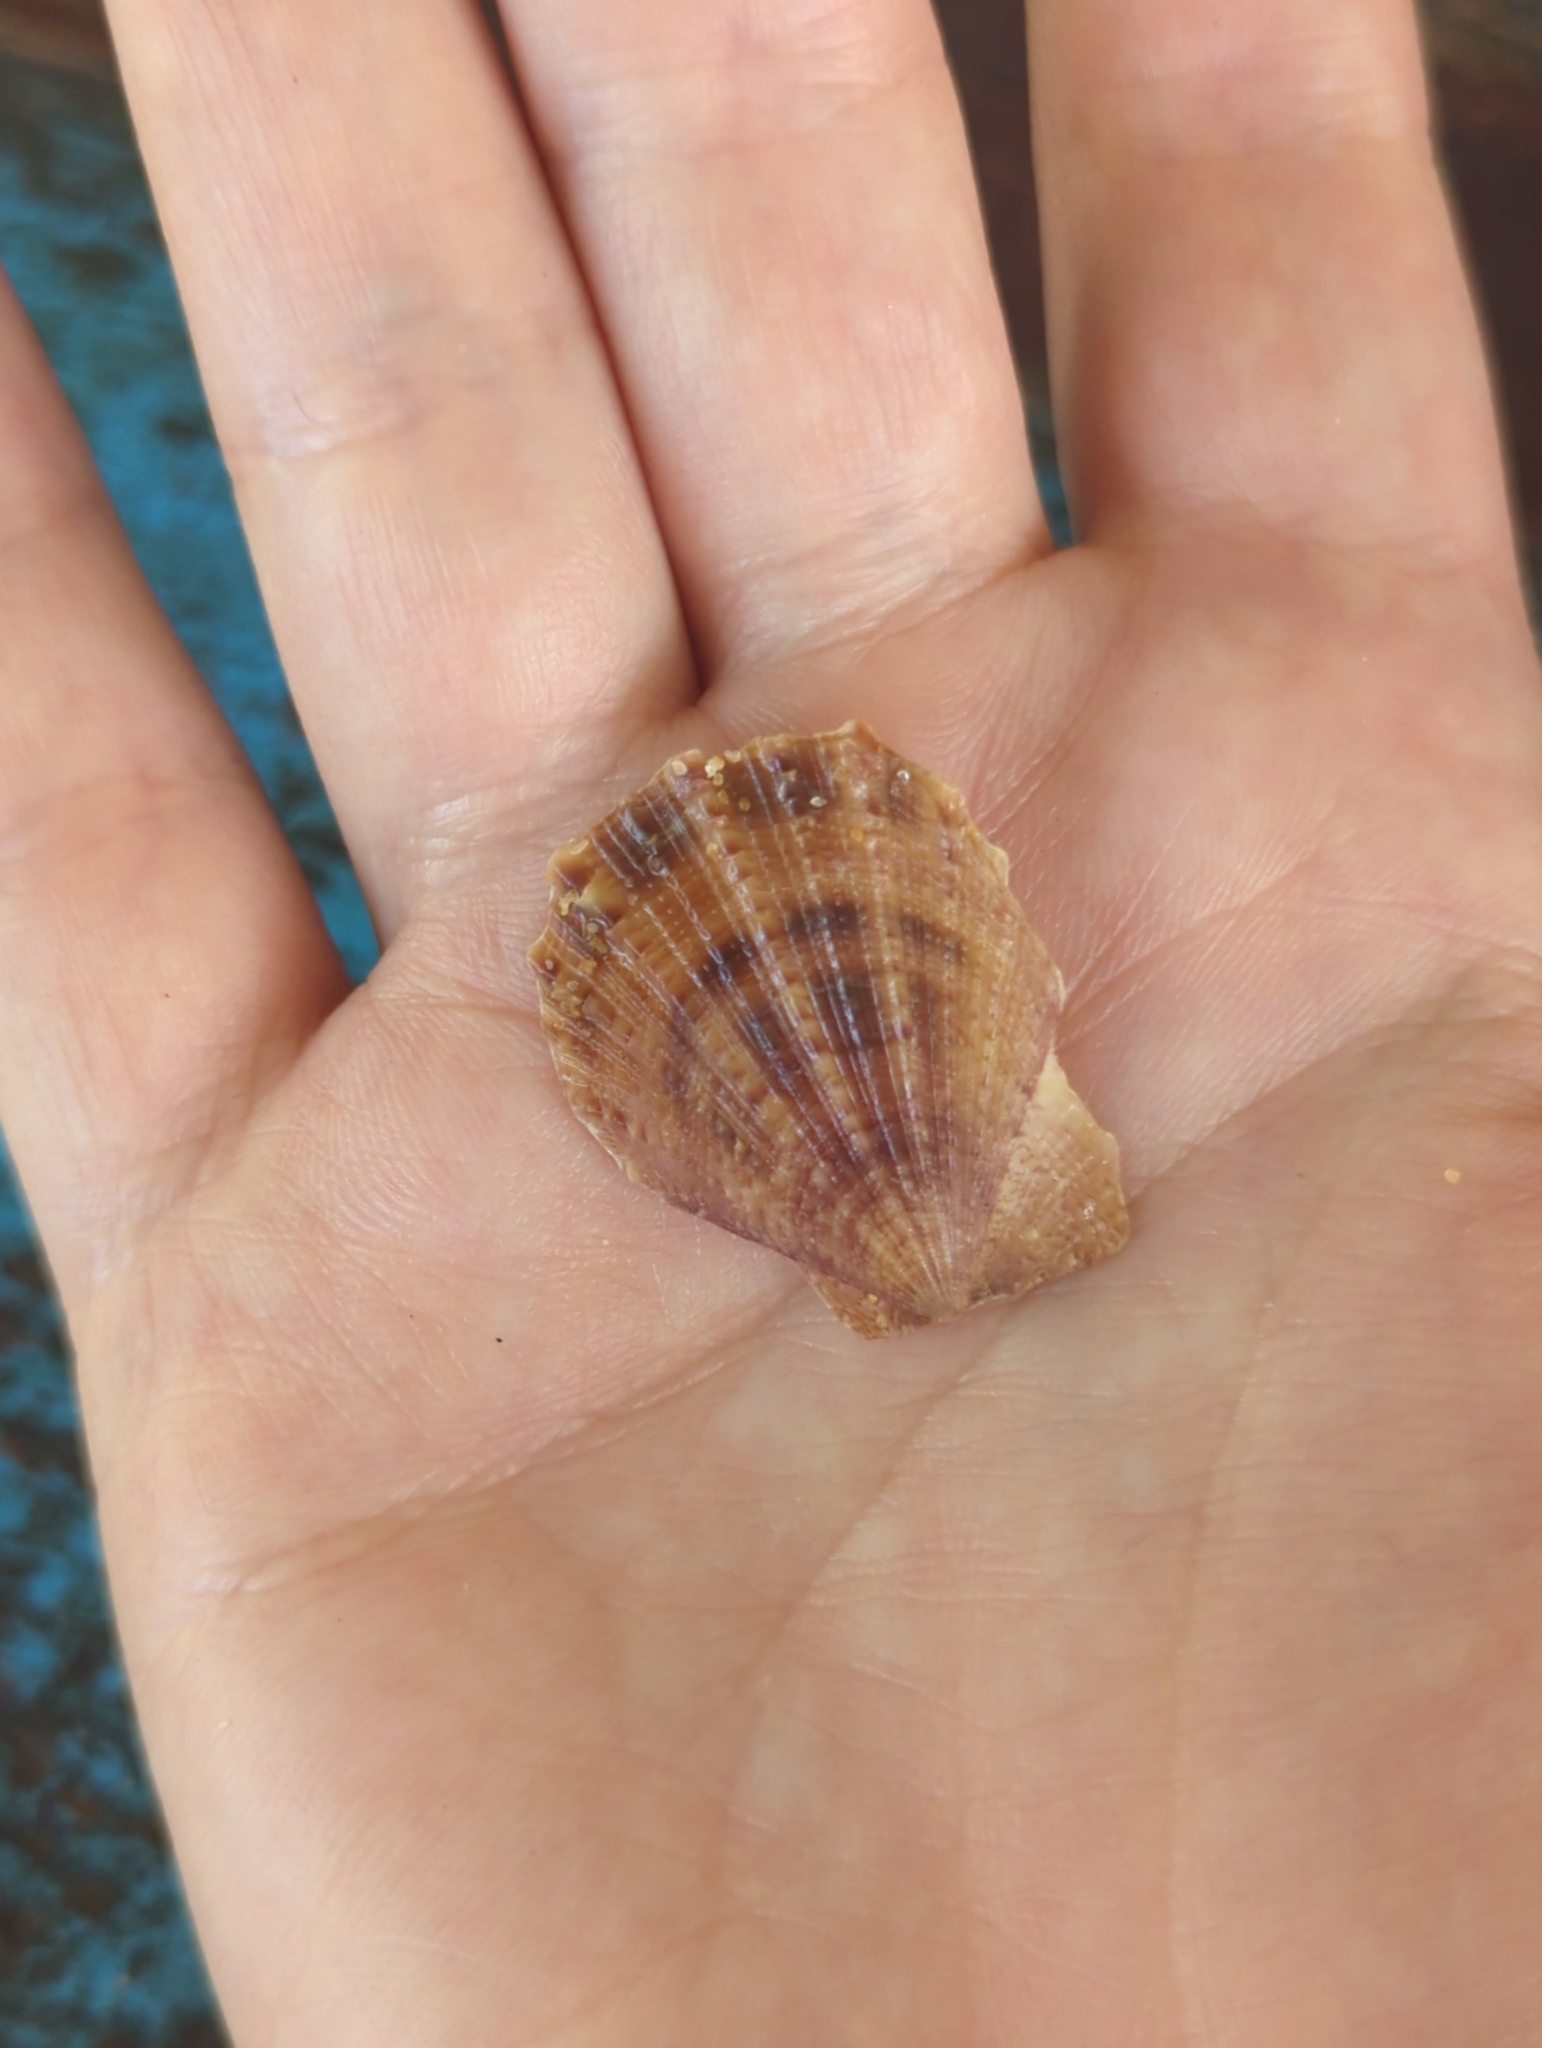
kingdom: Animalia
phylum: Mollusca
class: Bivalvia
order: Pectinida
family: Pectinidae
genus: Scaeochlamys
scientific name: Scaeochlamys livida
